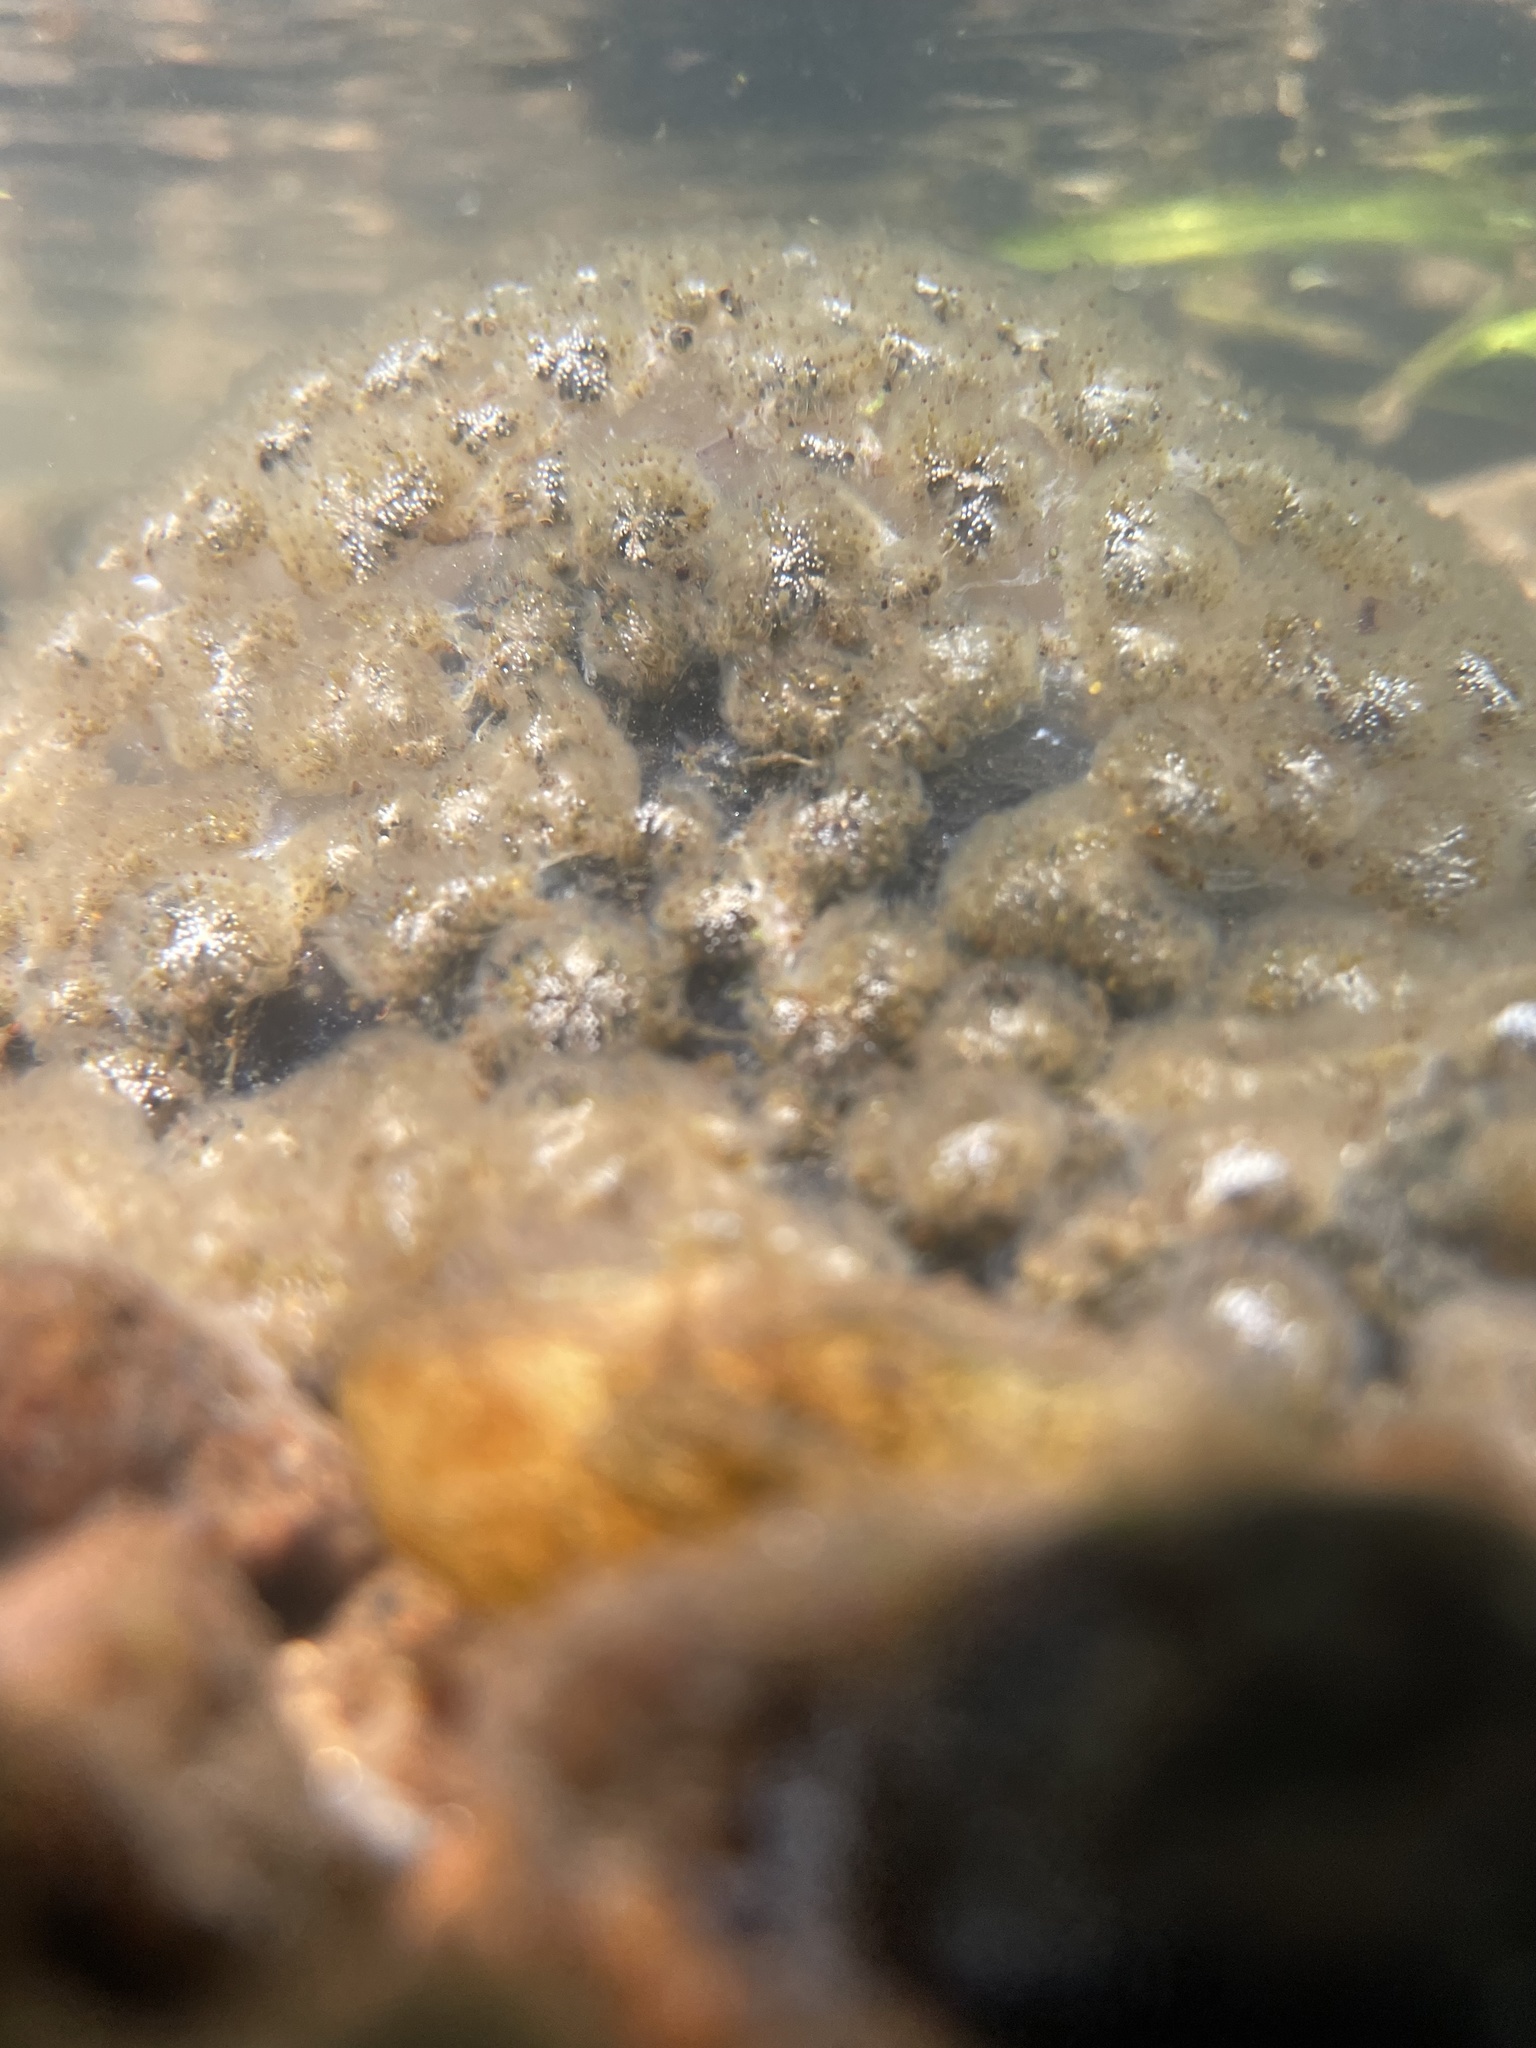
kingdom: Animalia
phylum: Bryozoa
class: Phylactolaemata
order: Plumatellida
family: Pectinatellidae
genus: Pectinatella
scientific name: Pectinatella magnifica
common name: Magnificent bryozoan
